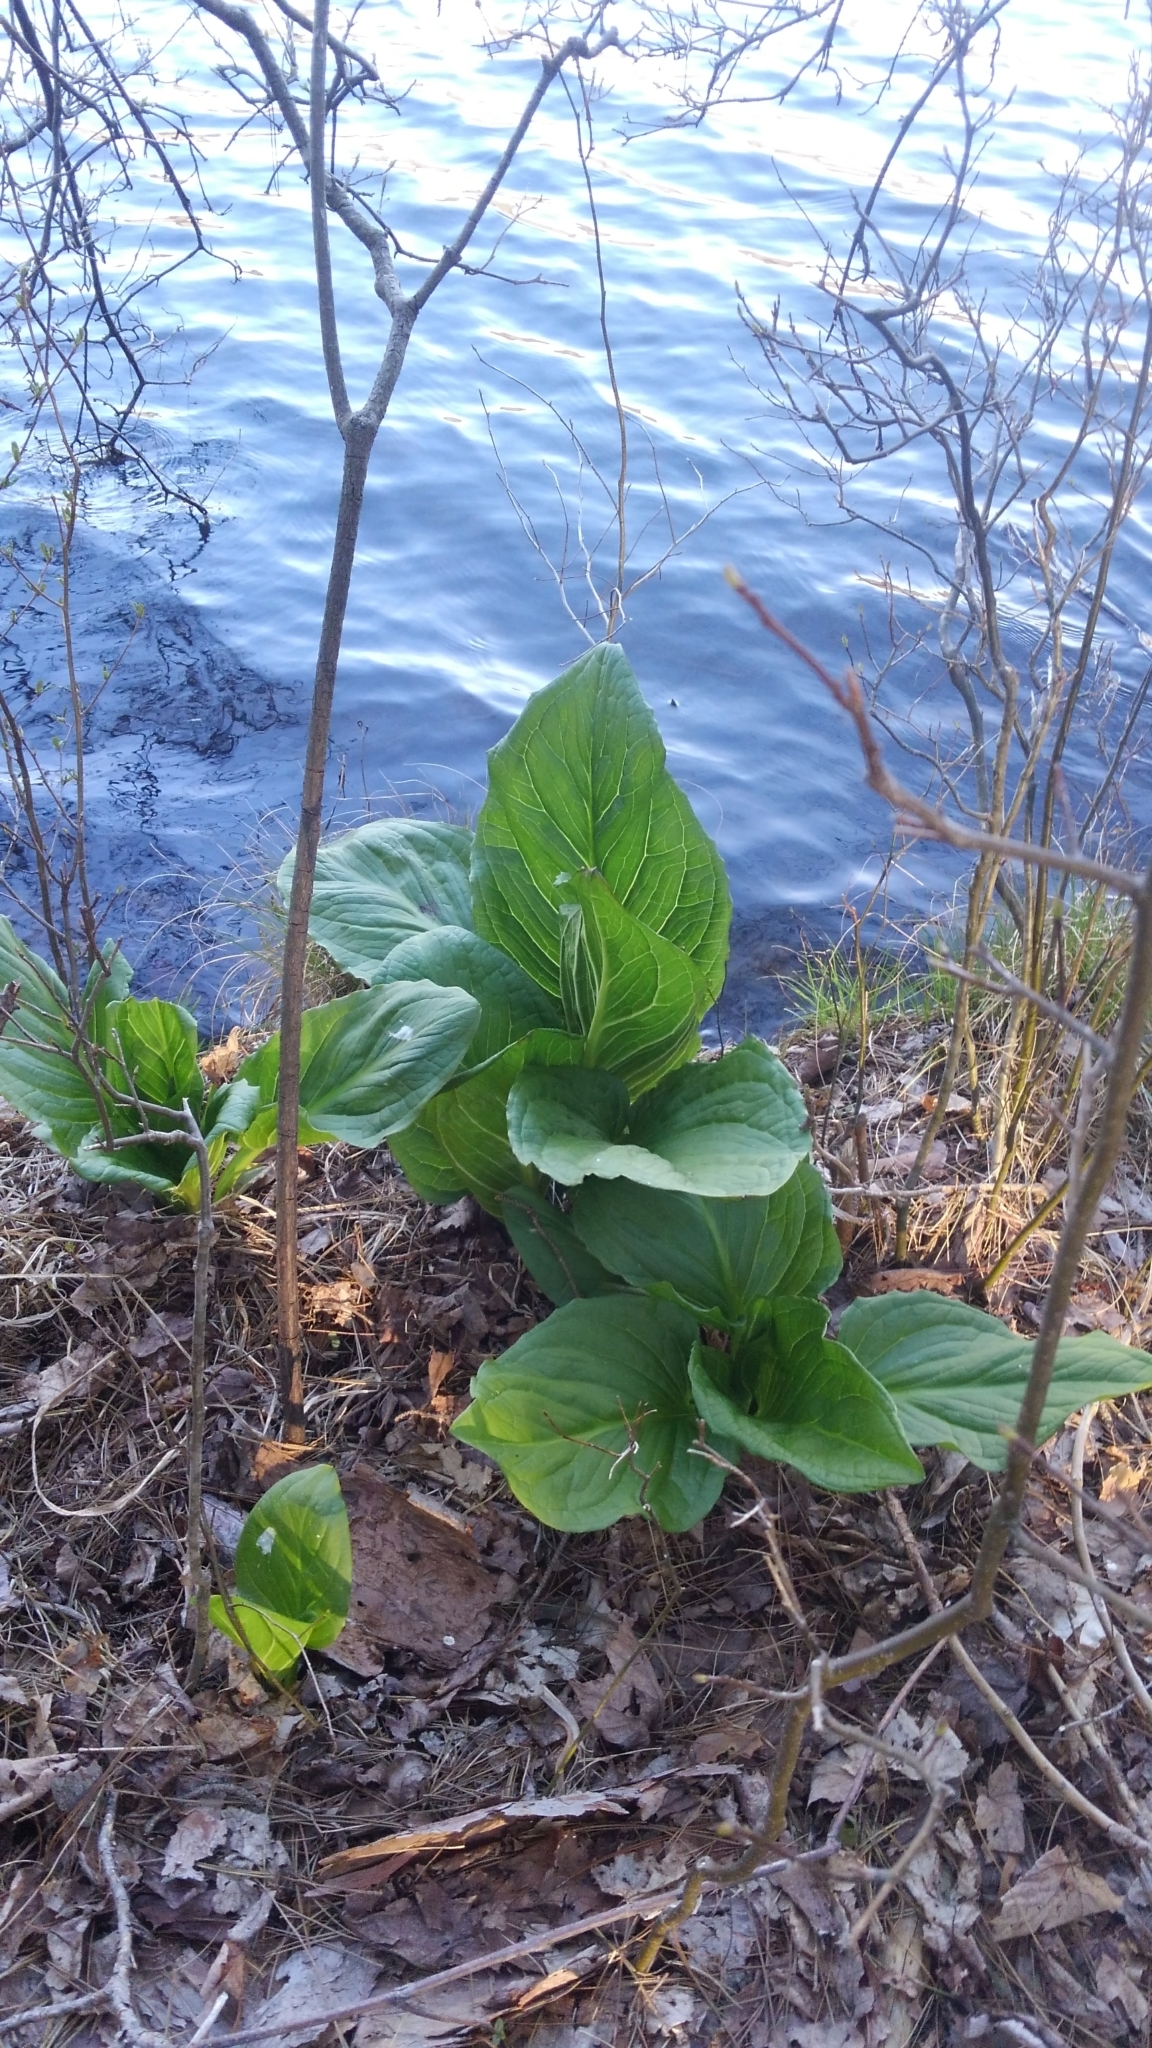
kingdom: Plantae
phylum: Tracheophyta
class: Liliopsida
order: Alismatales
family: Araceae
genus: Symplocarpus
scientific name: Symplocarpus foetidus
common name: Eastern skunk cabbage
